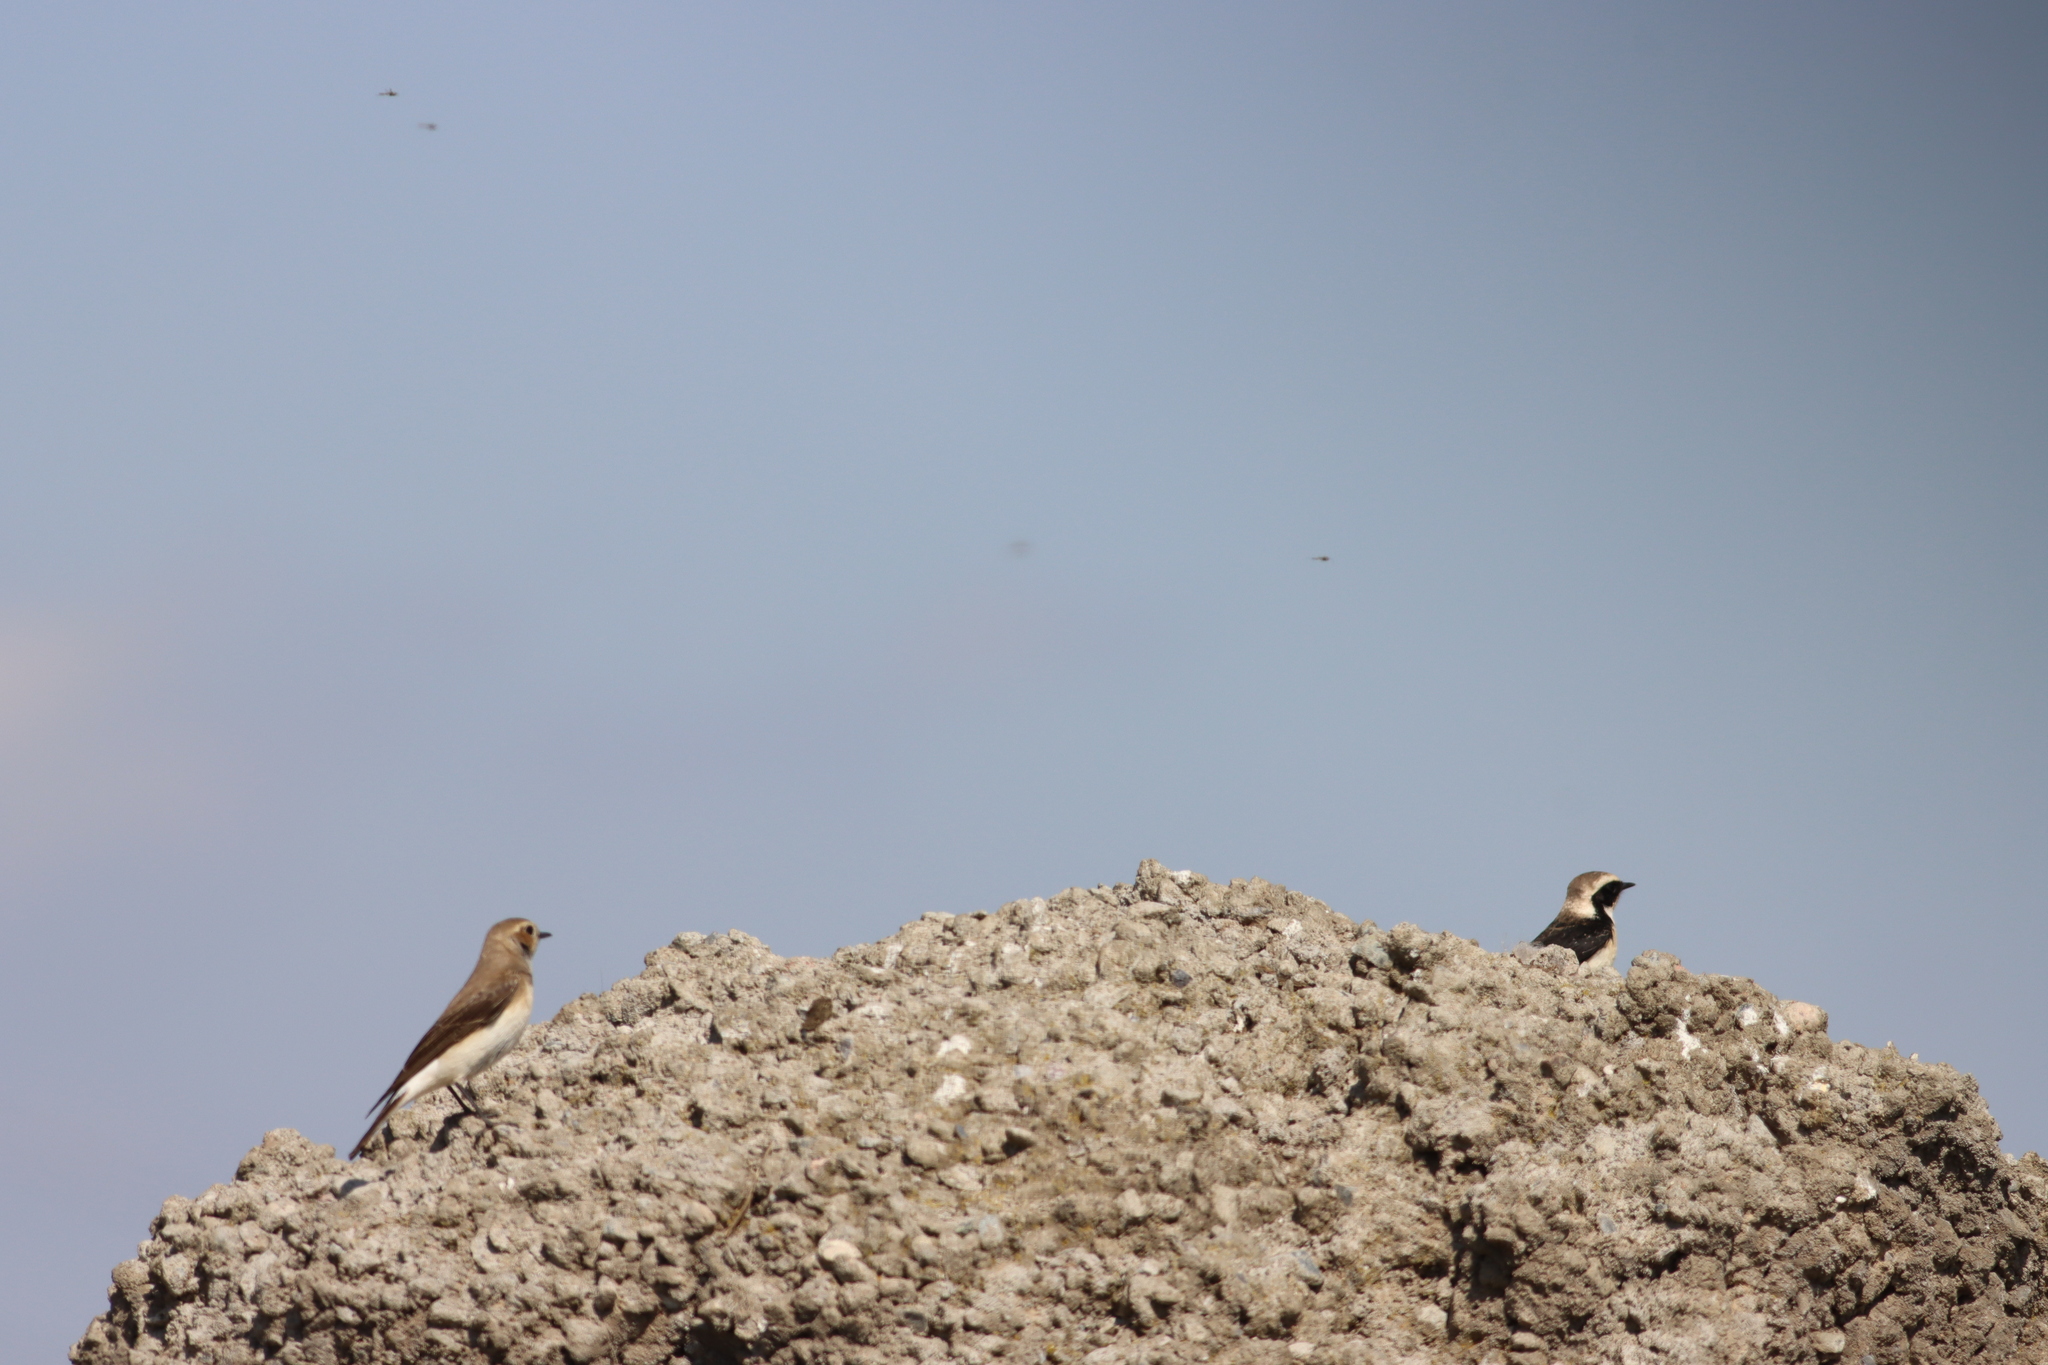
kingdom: Animalia
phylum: Chordata
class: Aves
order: Passeriformes
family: Muscicapidae
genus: Oenanthe
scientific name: Oenanthe pleschanka
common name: Pied wheatear
